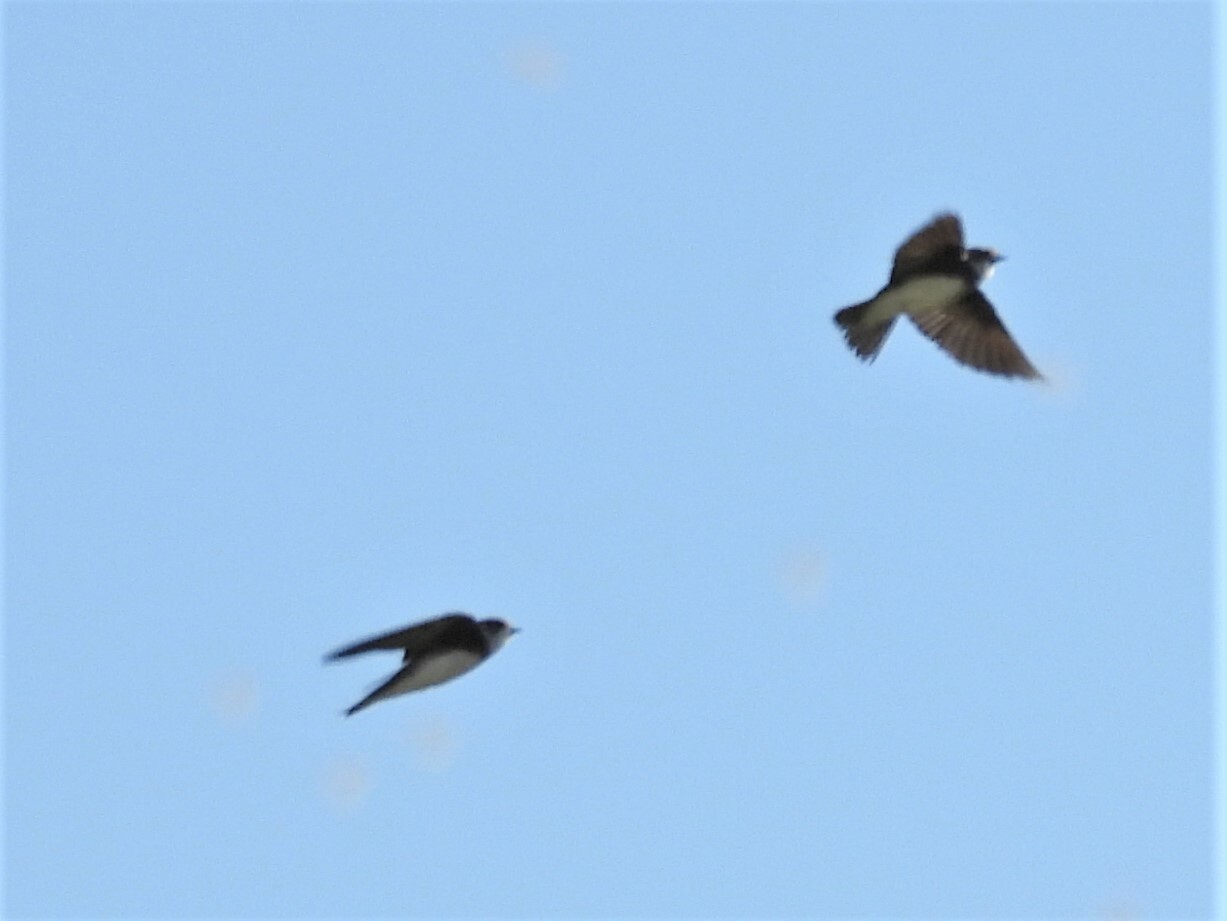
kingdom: Animalia
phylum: Chordata
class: Aves
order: Passeriformes
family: Hirundinidae
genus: Riparia
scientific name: Riparia riparia
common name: Sand martin
